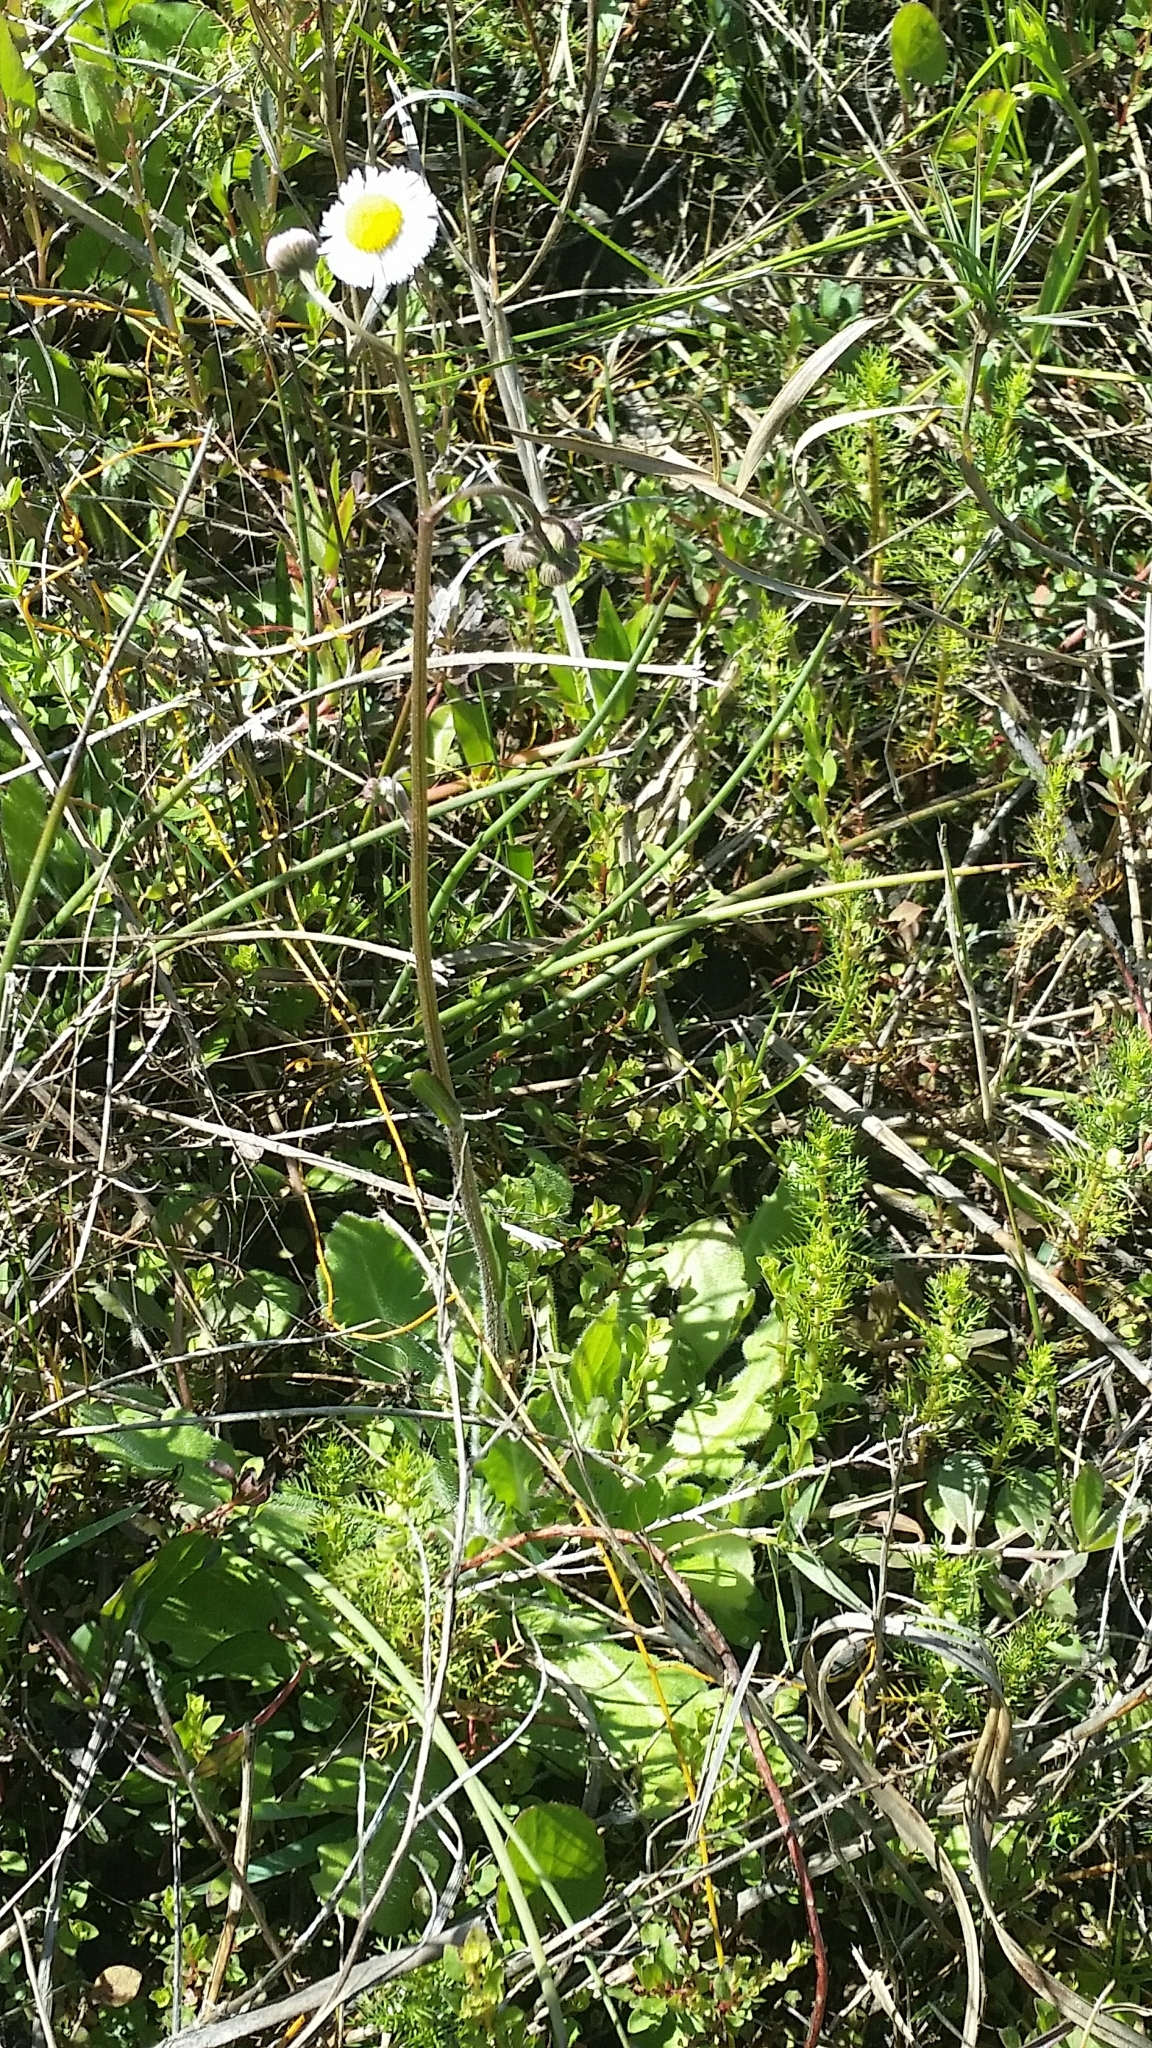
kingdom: Plantae
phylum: Tracheophyta
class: Magnoliopsida
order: Asterales
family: Asteraceae
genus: Erigeron
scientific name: Erigeron quercifolius
